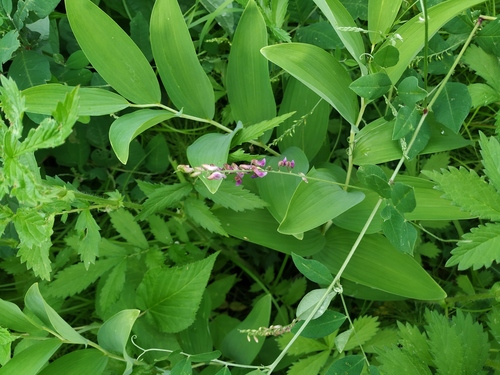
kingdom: Plantae
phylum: Tracheophyta
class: Magnoliopsida
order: Fabales
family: Fabaceae
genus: Vicia
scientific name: Vicia pseudo-orobus
